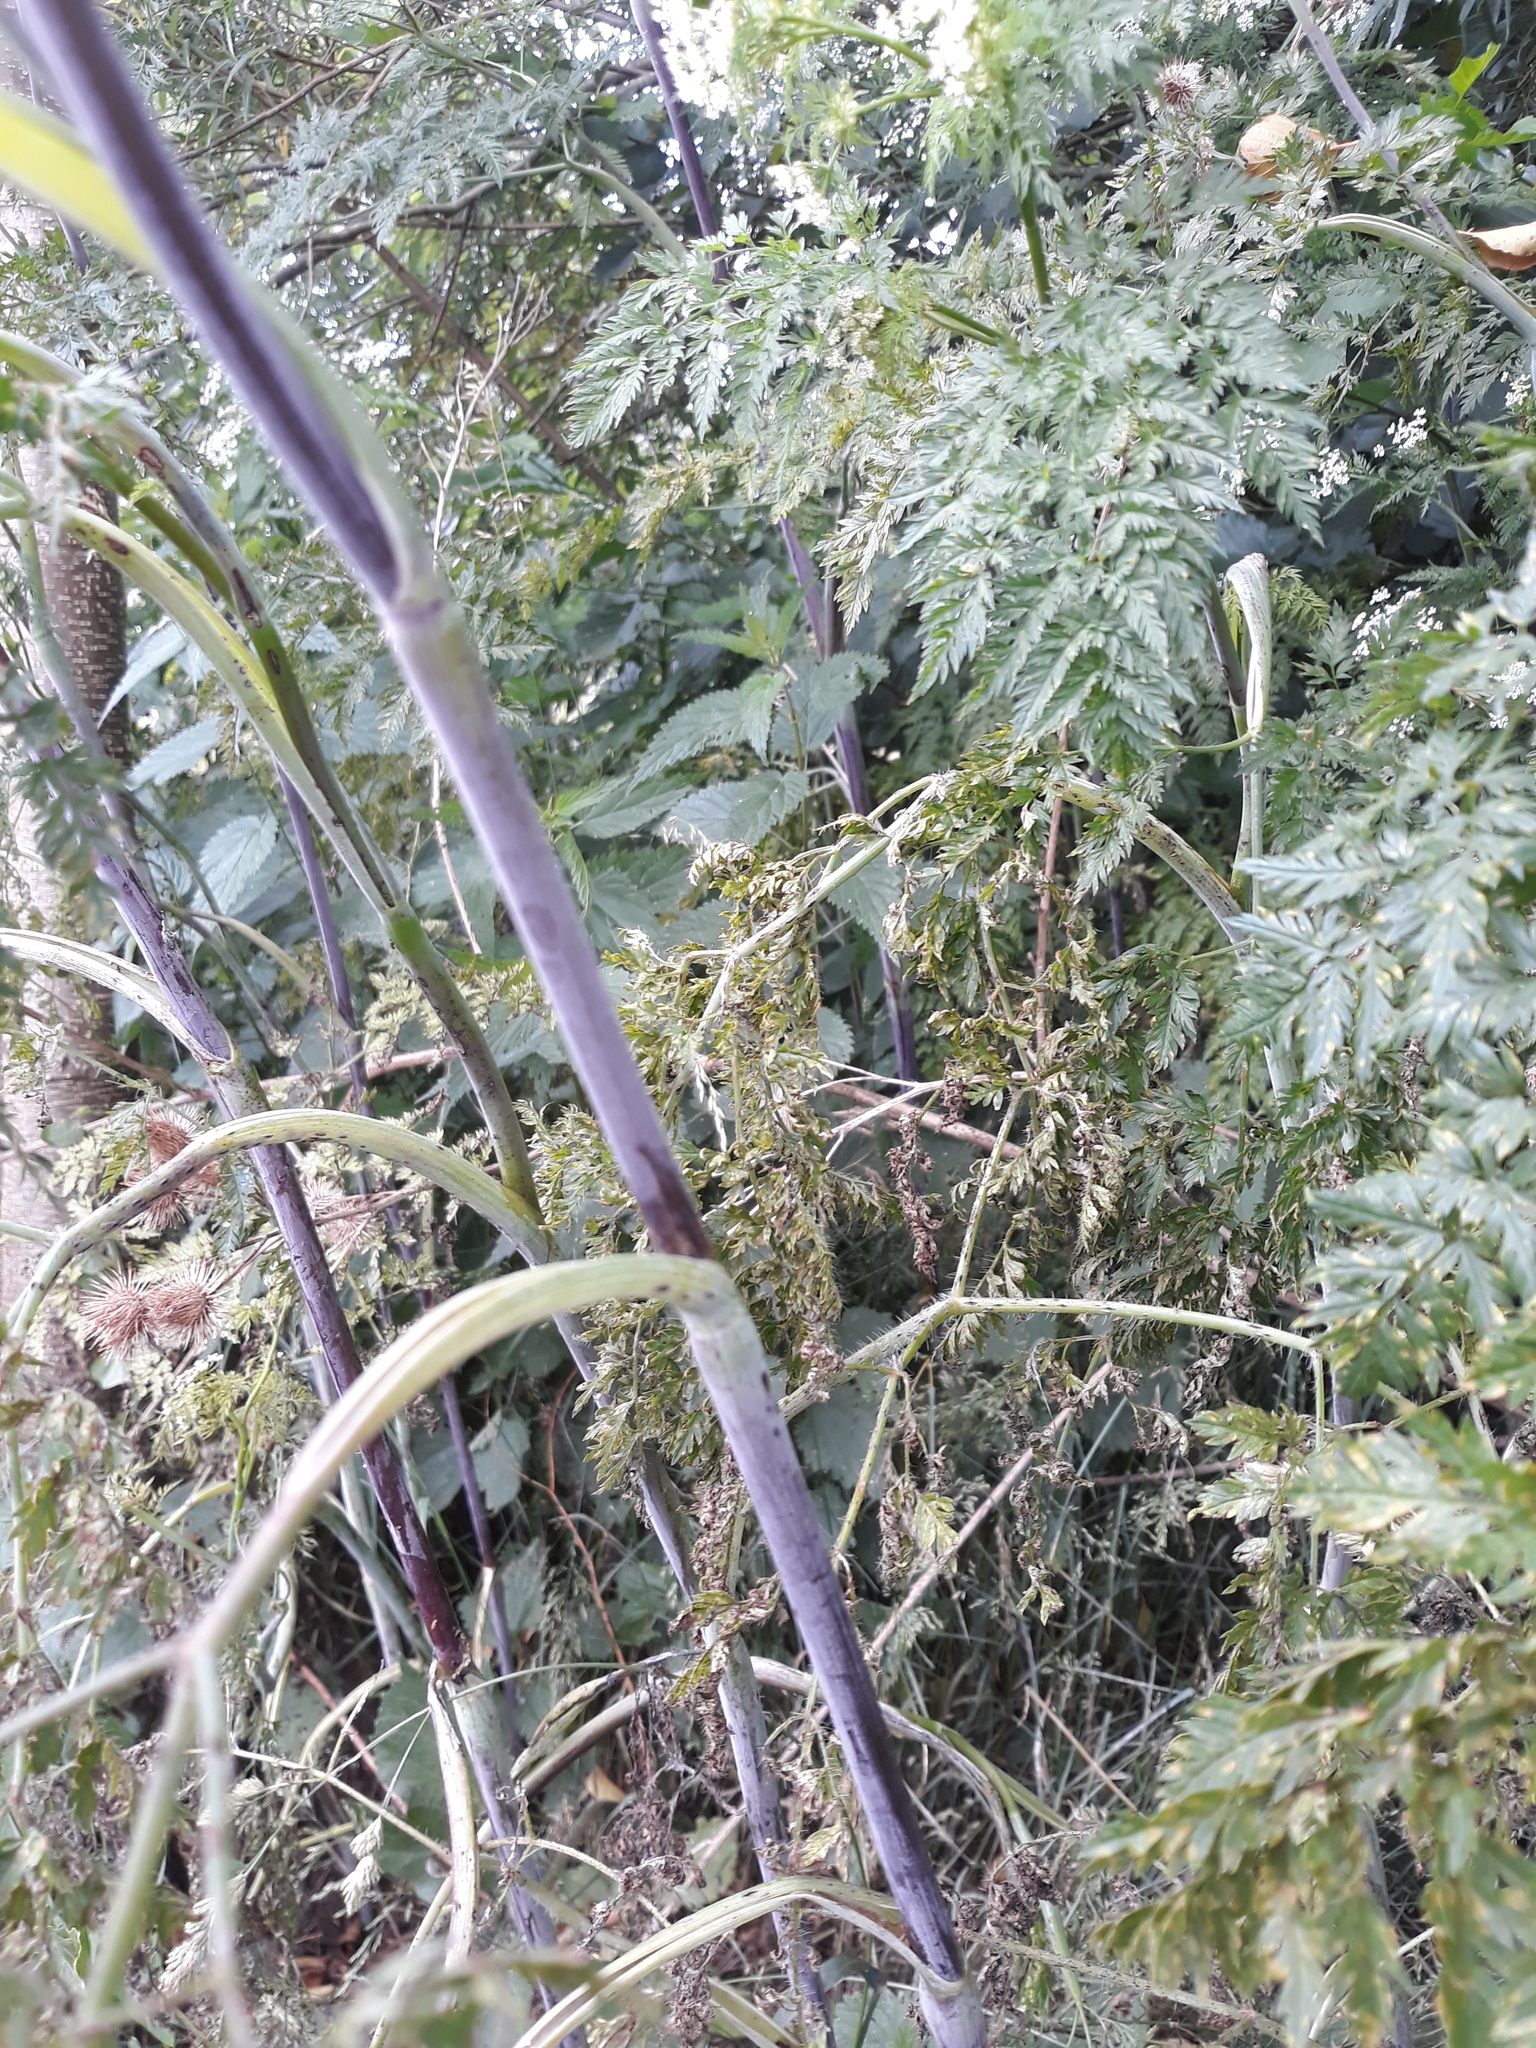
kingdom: Plantae
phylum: Tracheophyta
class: Magnoliopsida
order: Apiales
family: Apiaceae
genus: Chaerophyllum
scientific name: Chaerophyllum bulbosum
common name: Bulbous chervil
